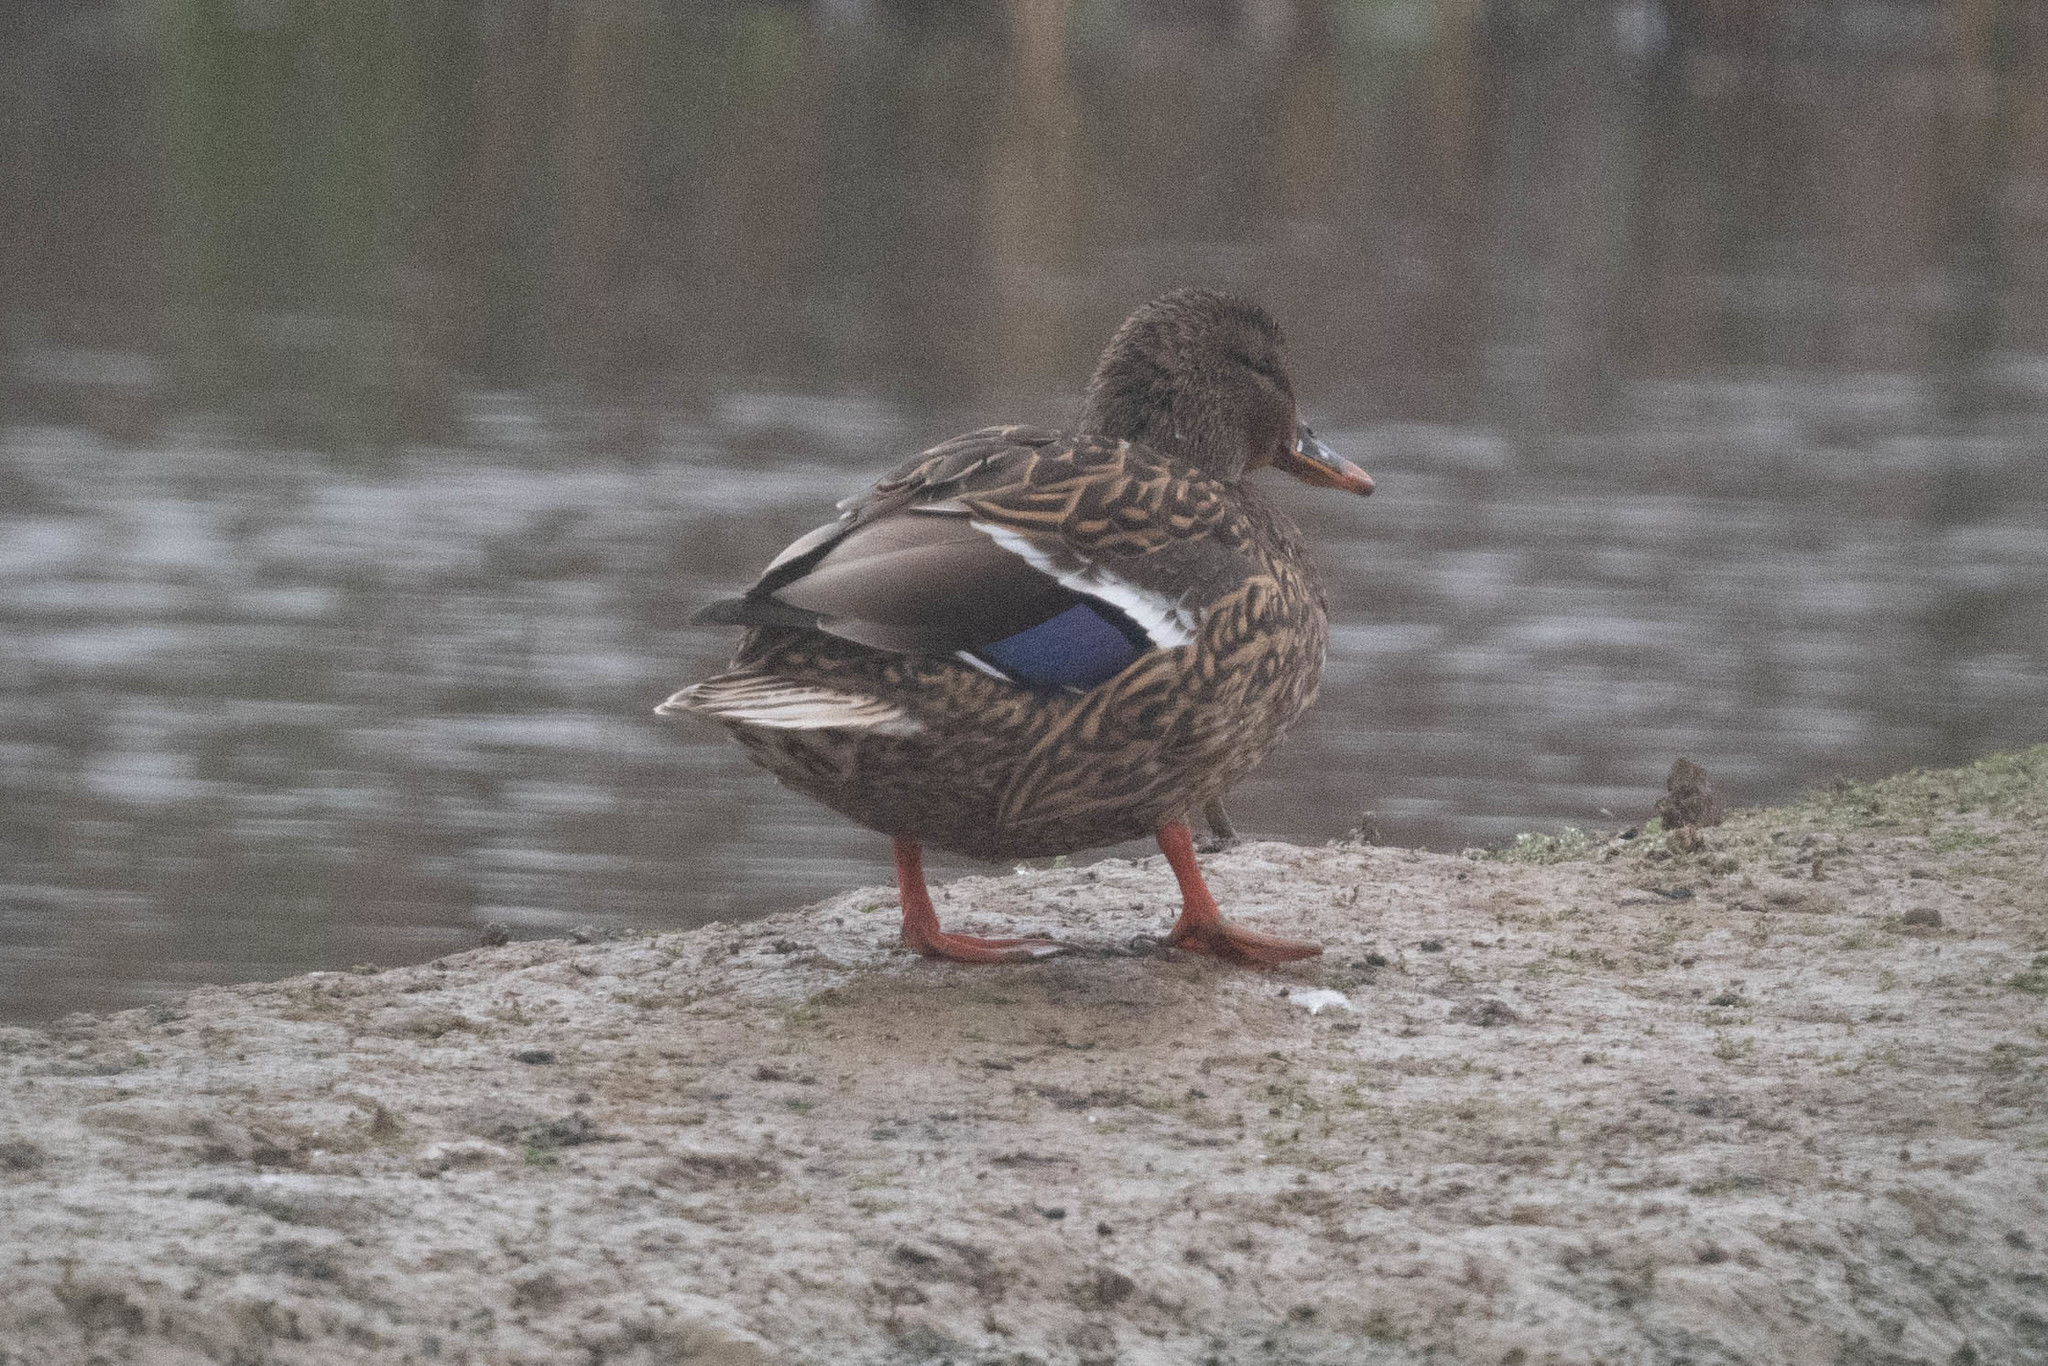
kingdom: Animalia
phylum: Chordata
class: Aves
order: Anseriformes
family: Anatidae
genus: Anas
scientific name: Anas platyrhynchos
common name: Mallard
